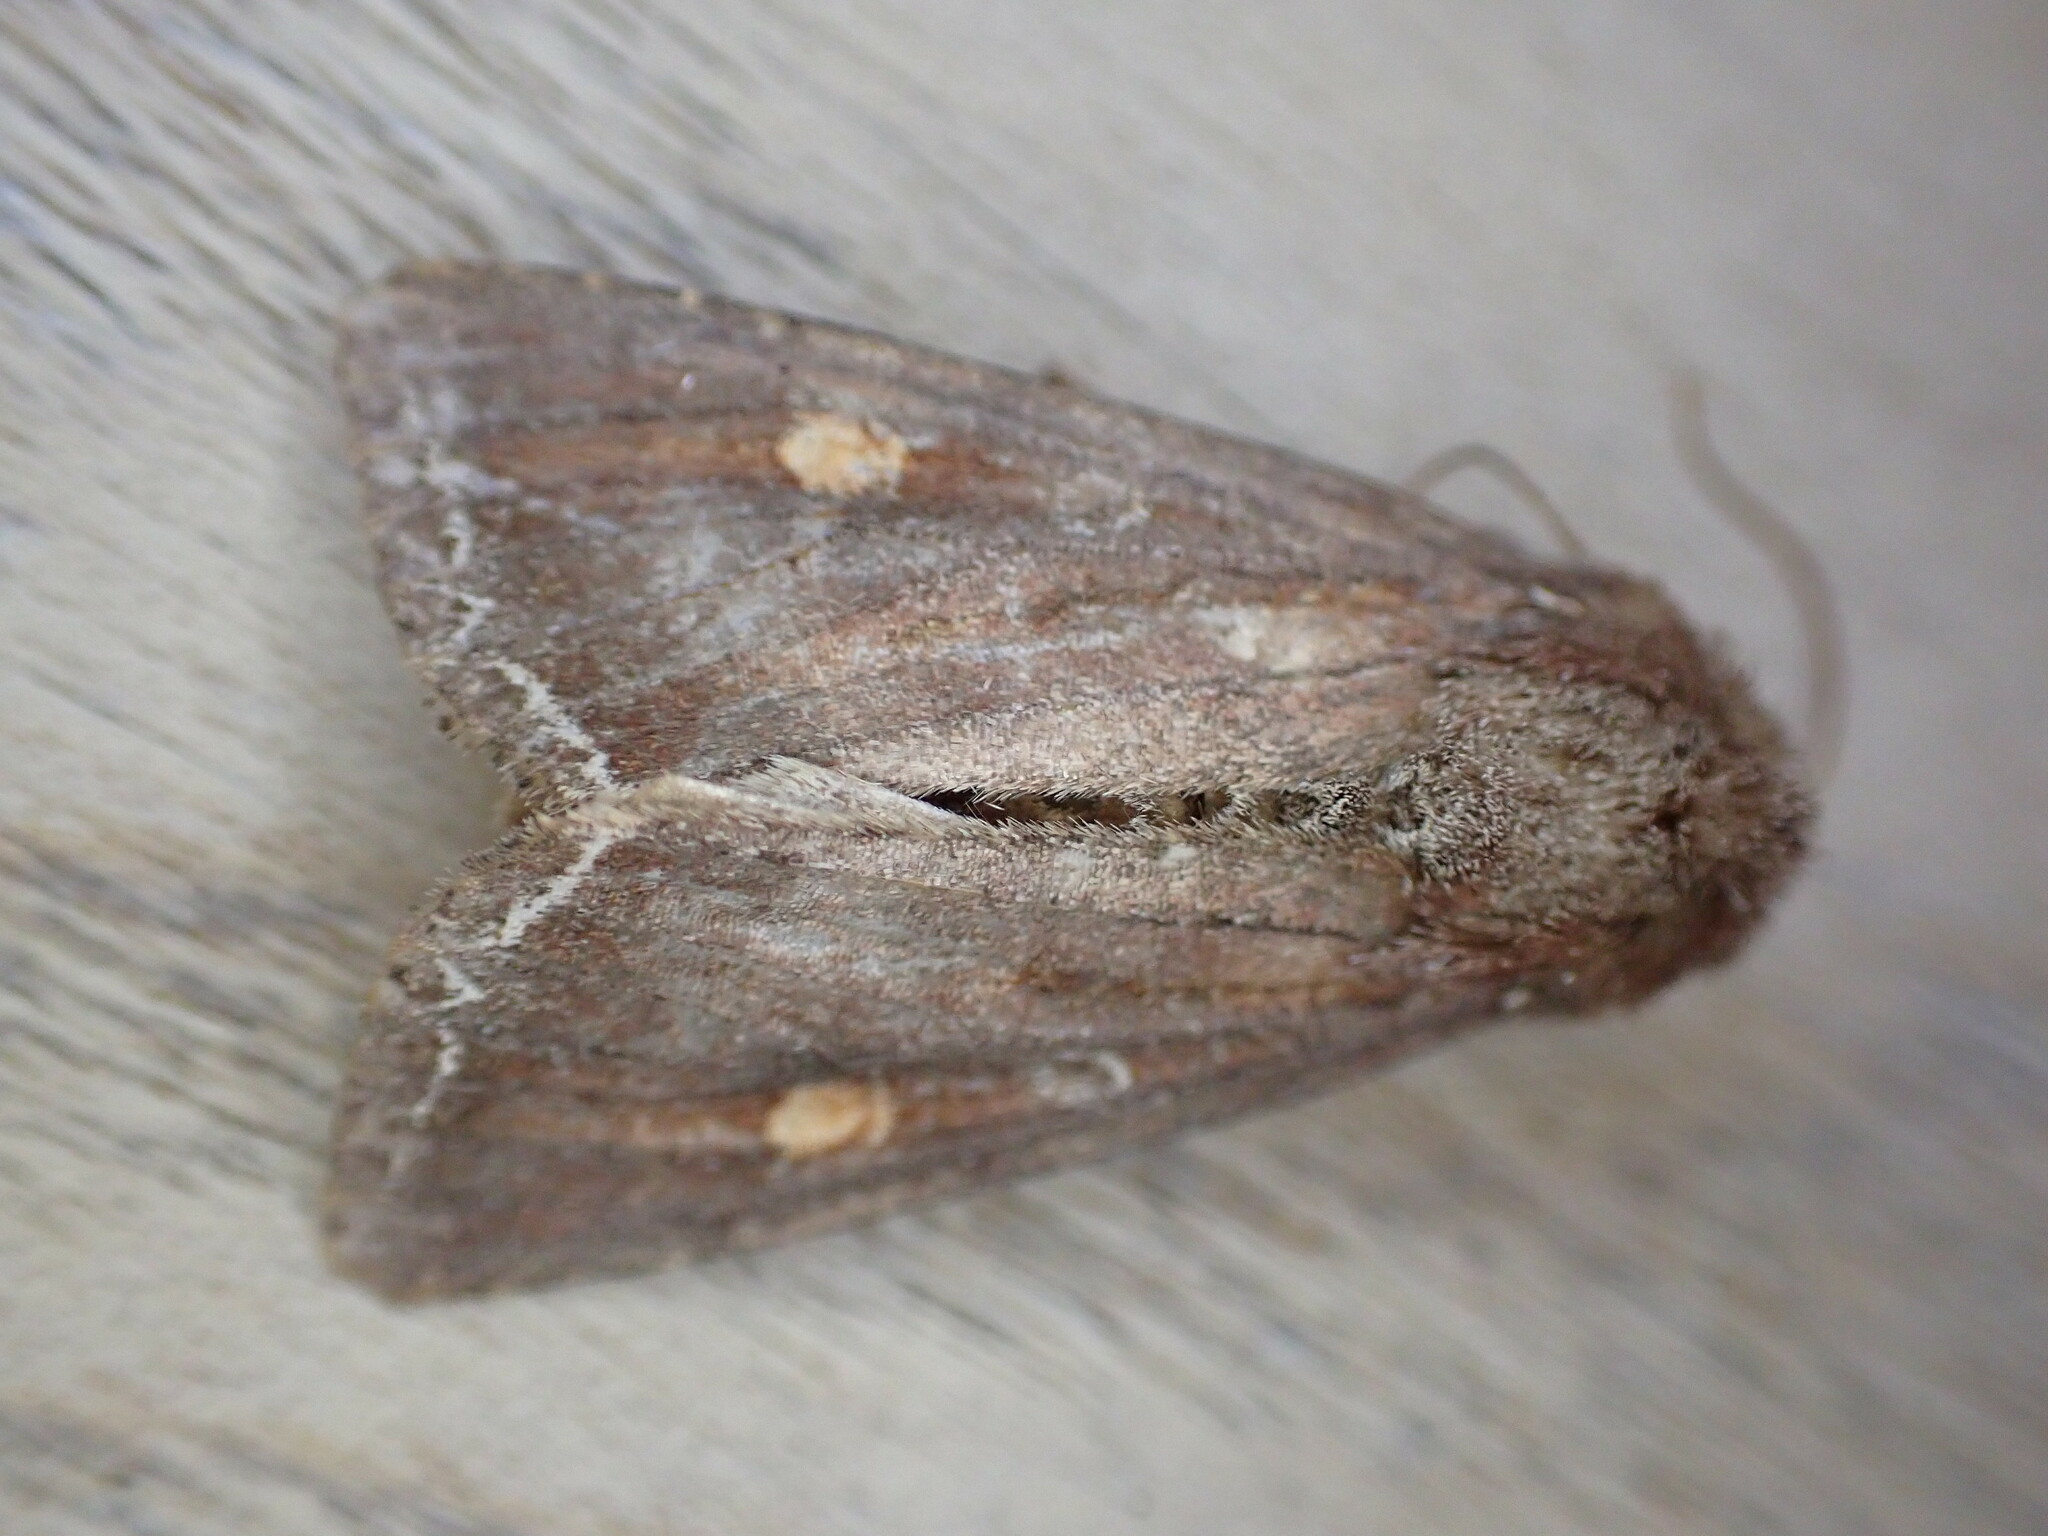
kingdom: Animalia
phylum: Arthropoda
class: Insecta
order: Lepidoptera
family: Noctuidae
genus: Lacanobia
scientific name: Lacanobia oleracea
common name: Bright-line brown-eye
